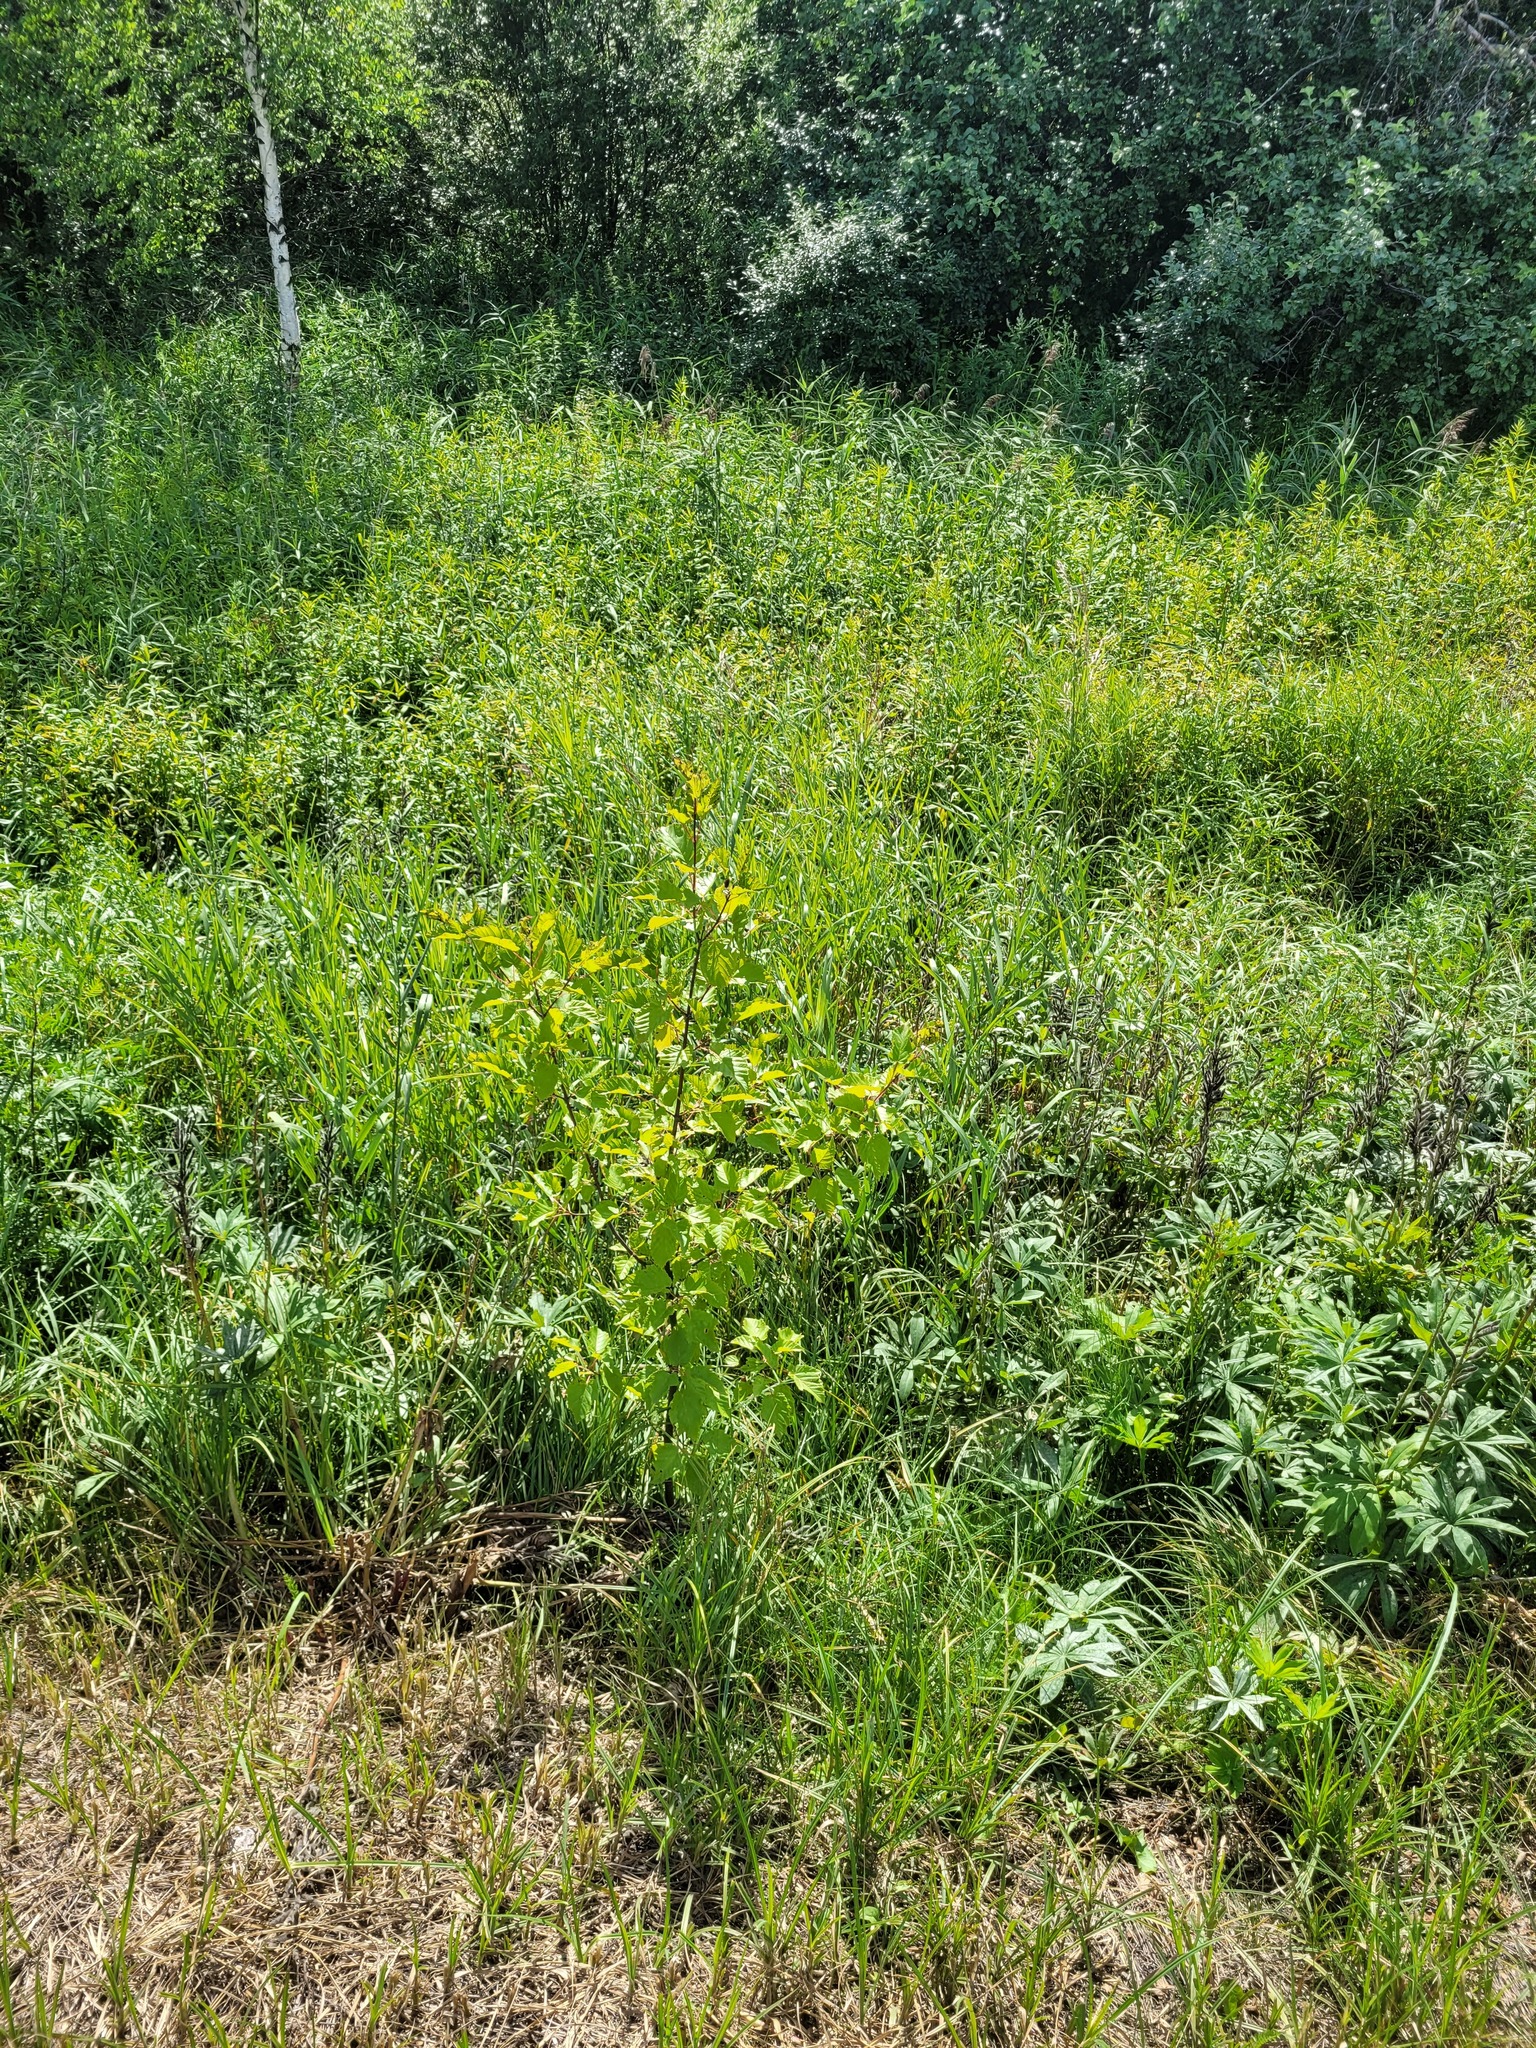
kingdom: Plantae
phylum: Tracheophyta
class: Magnoliopsida
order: Sapindales
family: Sapindaceae
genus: Acer
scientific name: Acer tataricum
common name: Tartar maple
